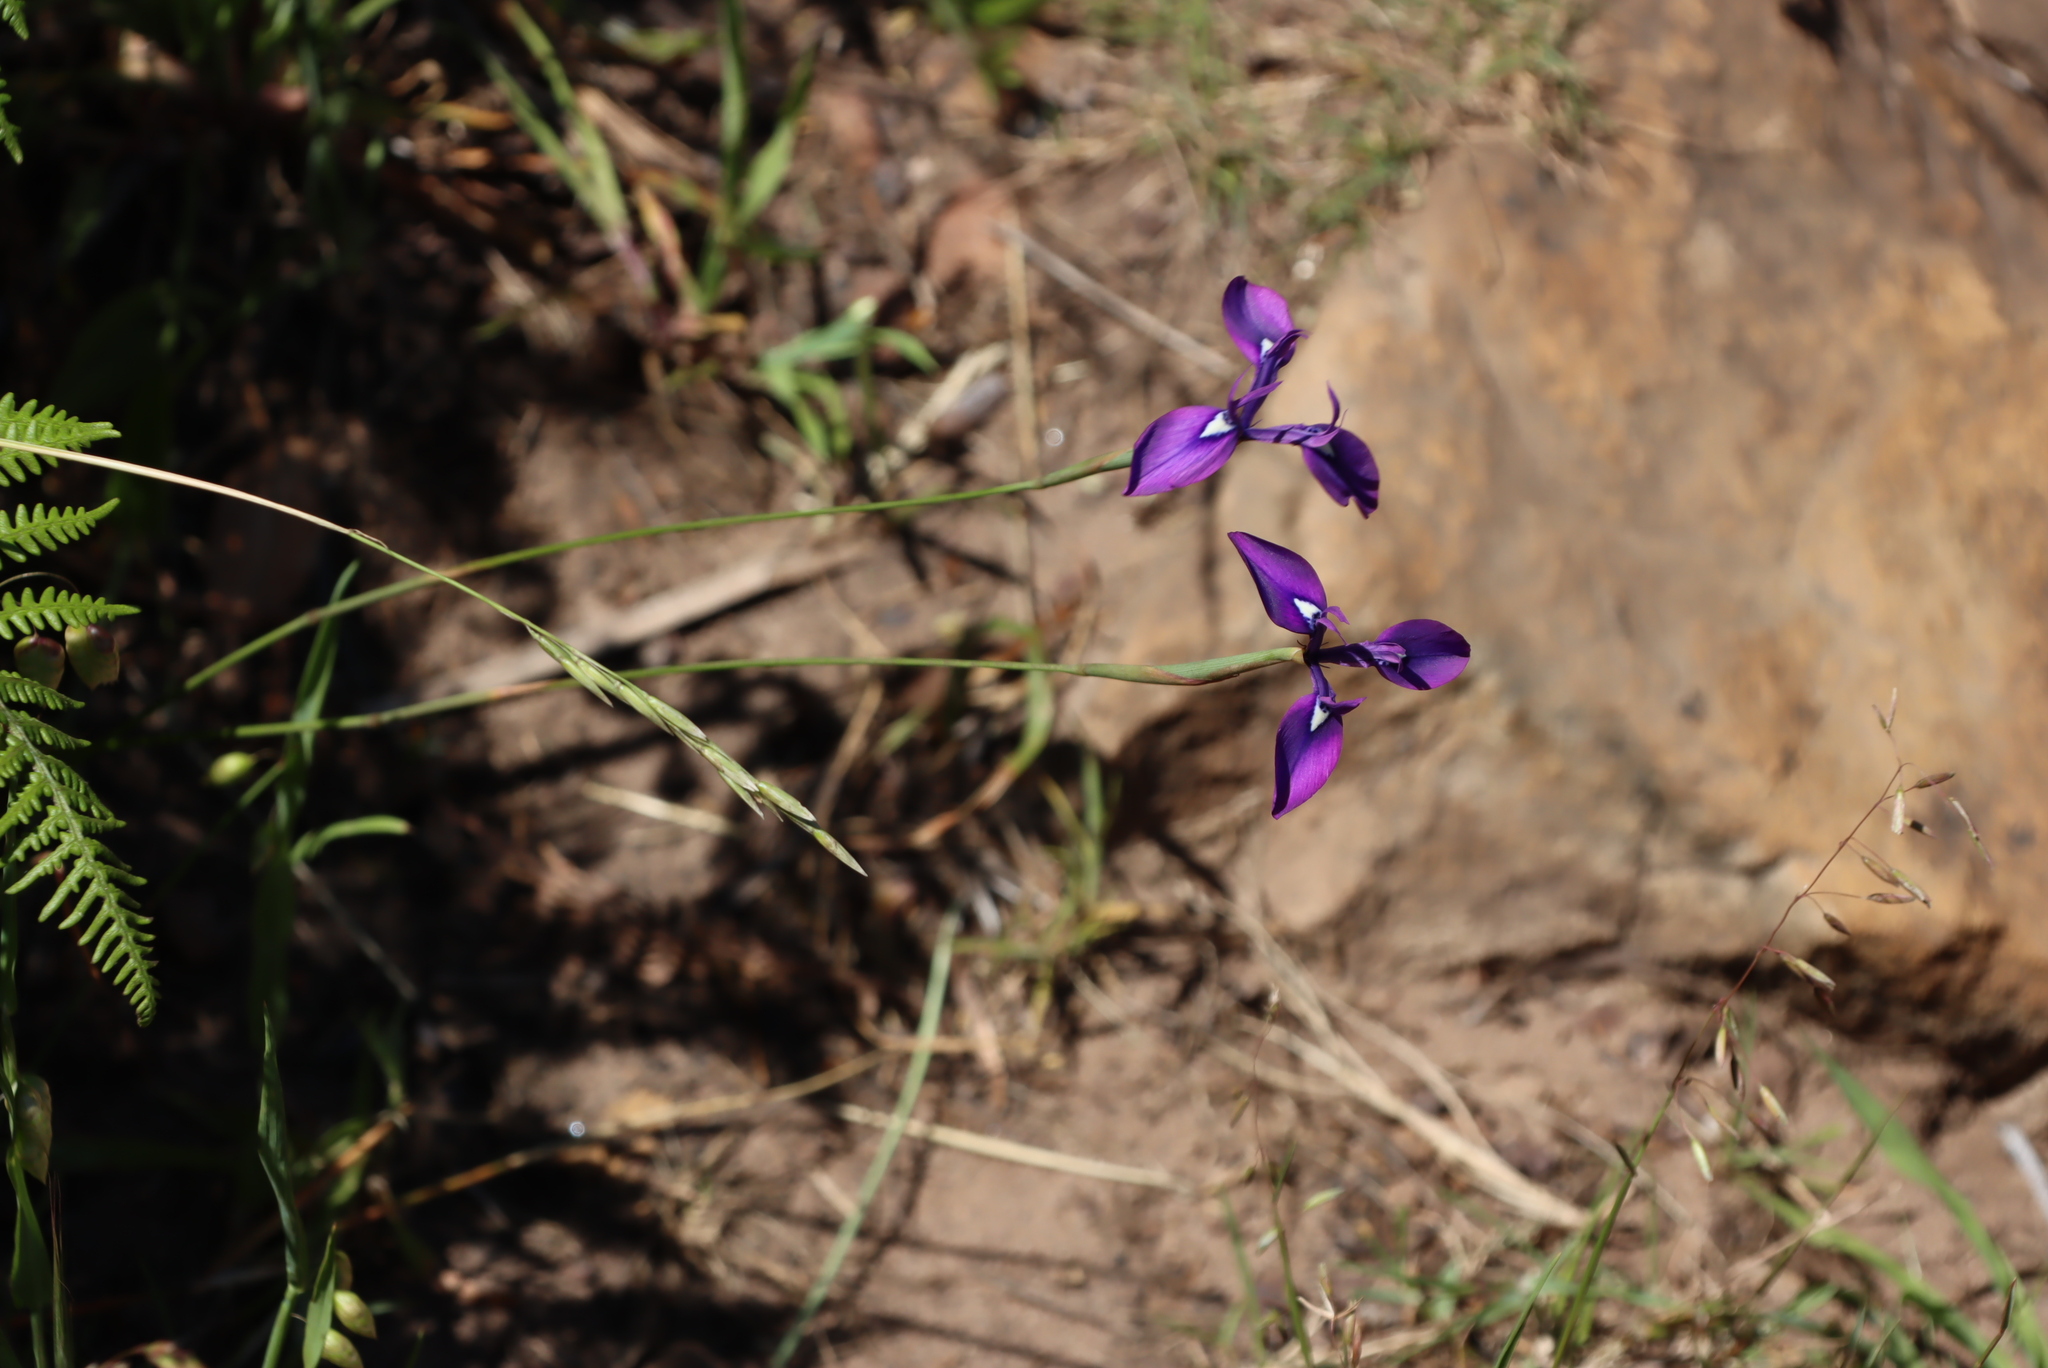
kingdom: Plantae
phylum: Tracheophyta
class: Liliopsida
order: Asparagales
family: Iridaceae
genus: Moraea
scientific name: Moraea tripetala
